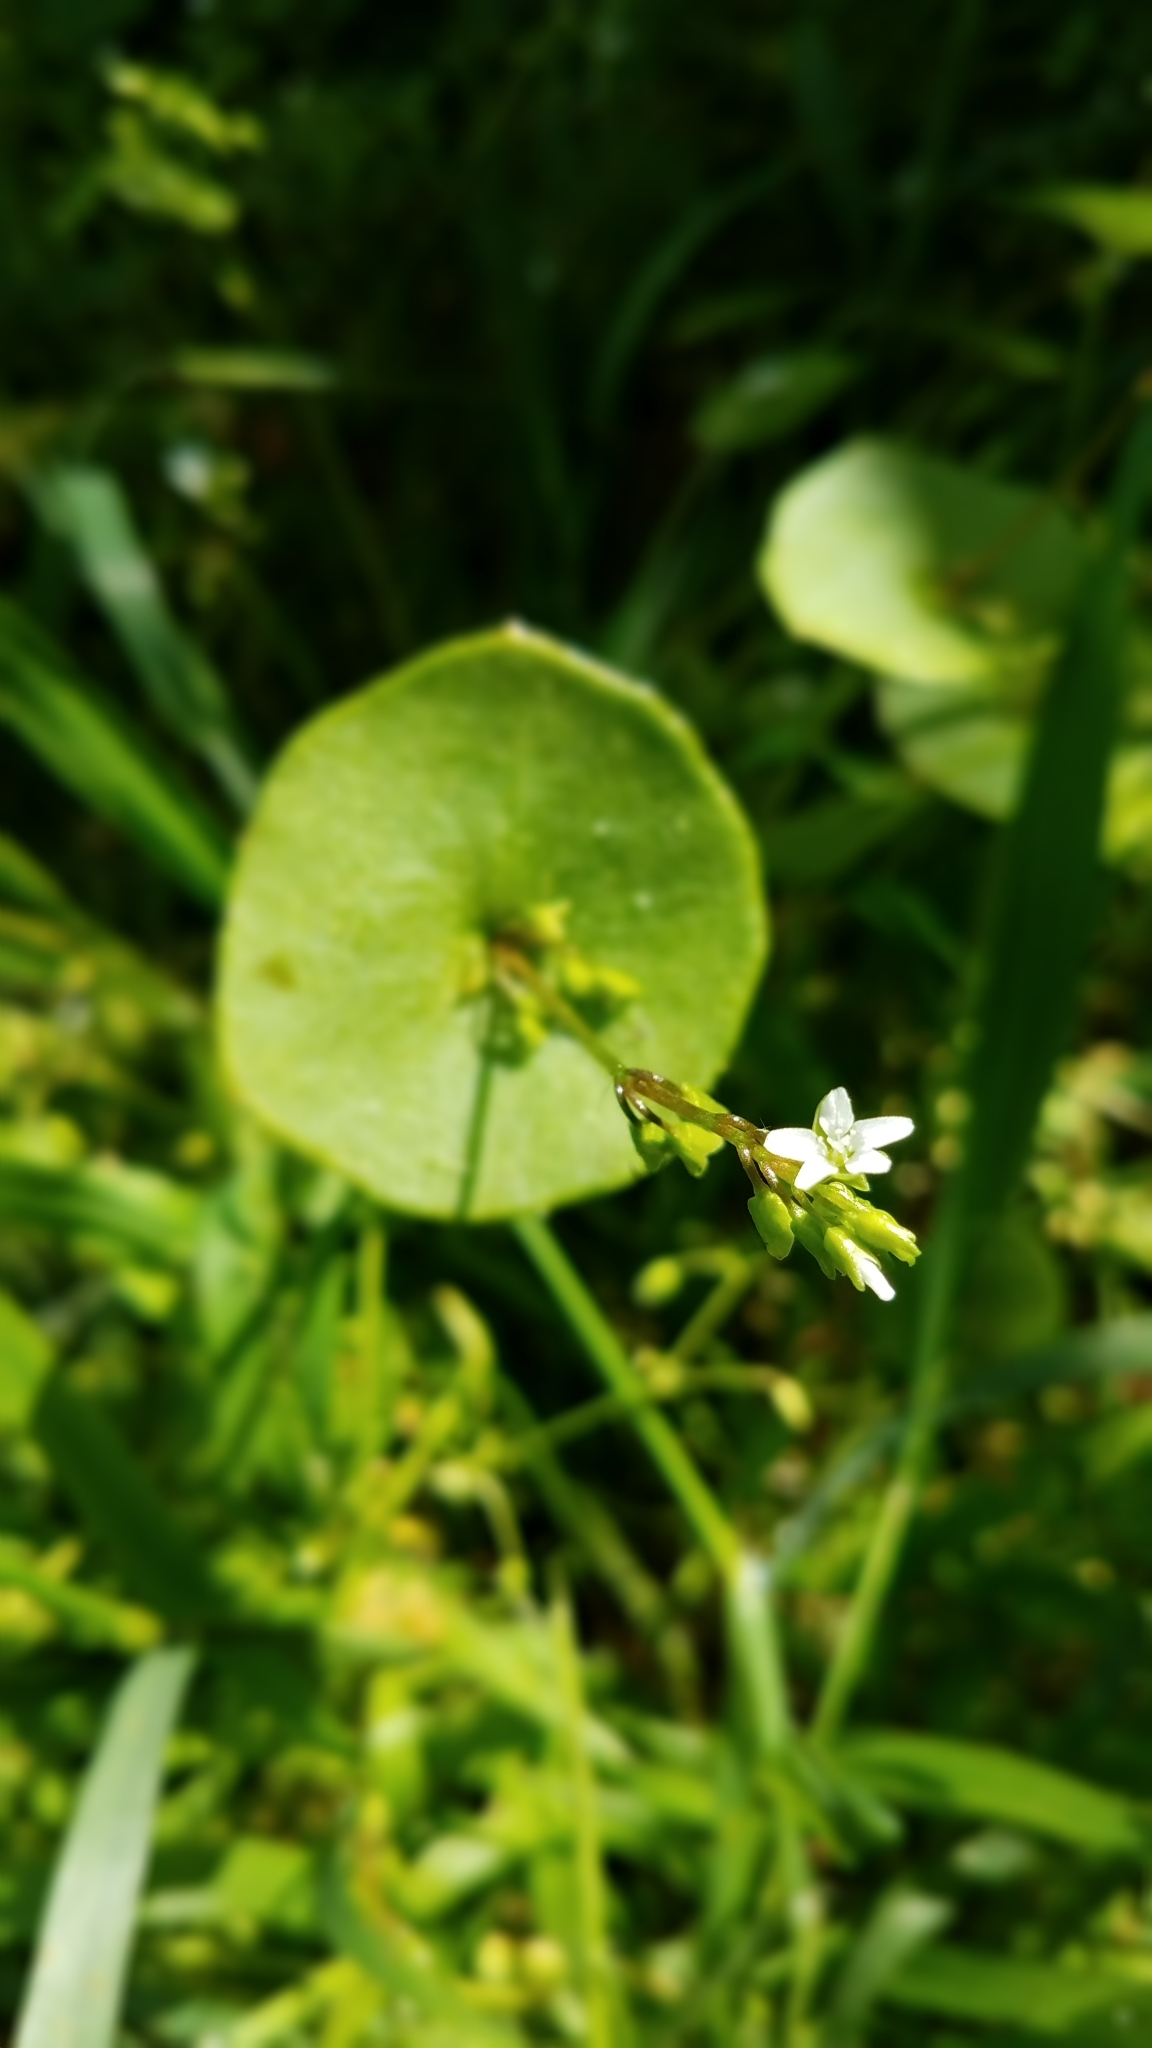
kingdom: Plantae
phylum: Tracheophyta
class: Magnoliopsida
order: Caryophyllales
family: Montiaceae
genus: Claytonia
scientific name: Claytonia perfoliata
